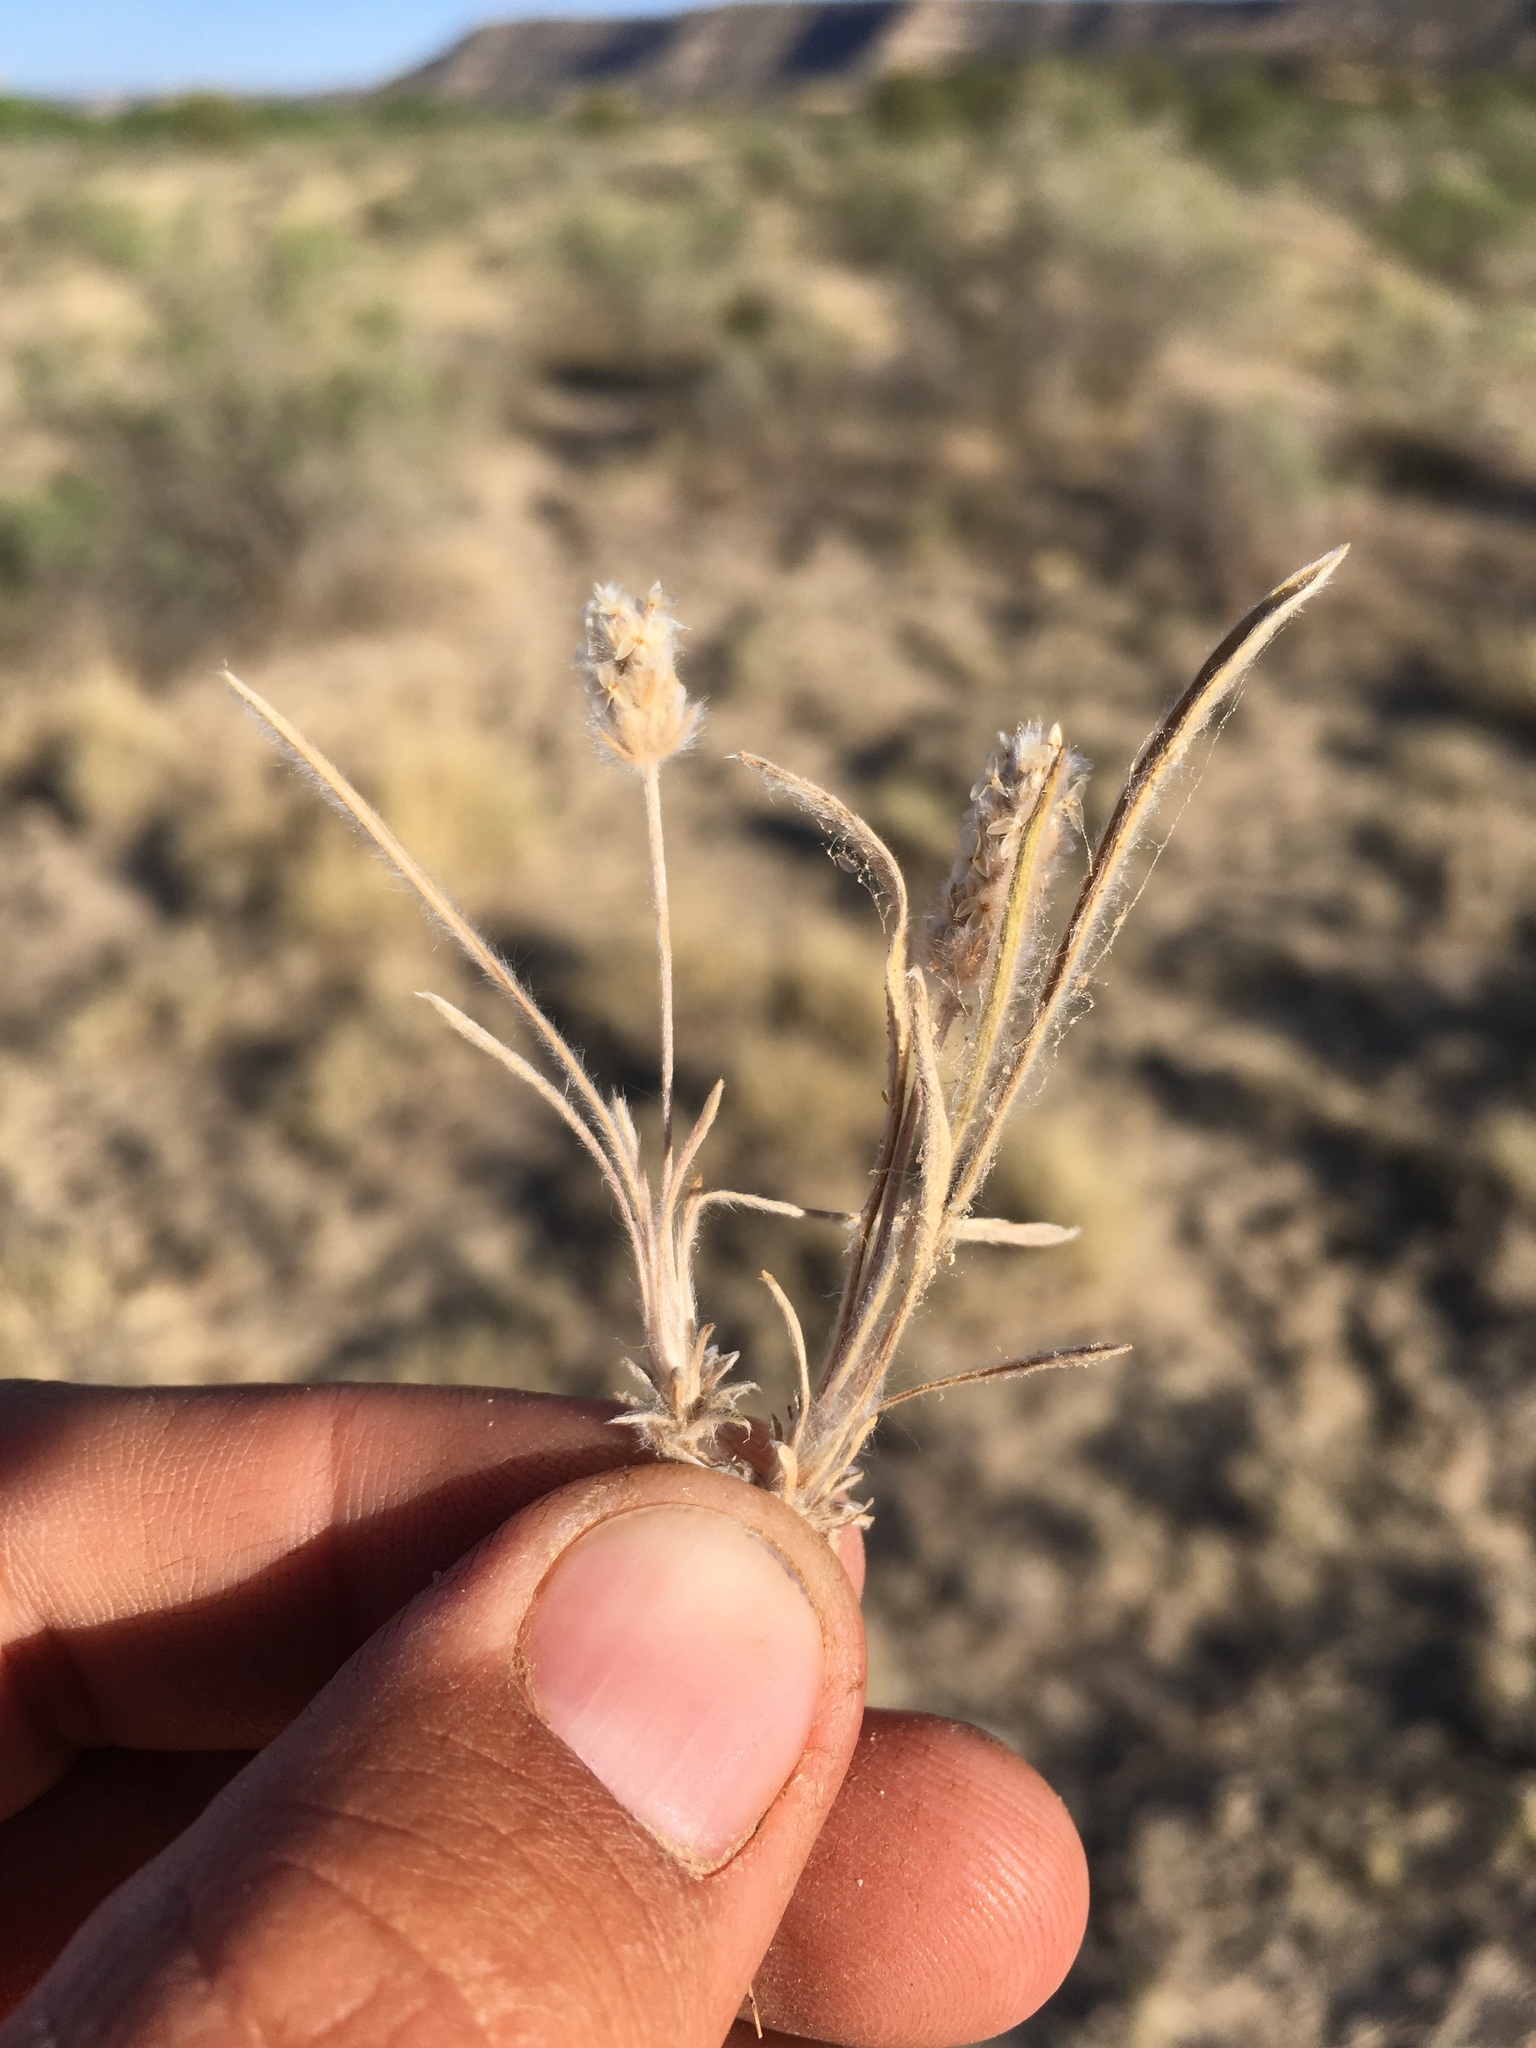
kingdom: Plantae
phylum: Tracheophyta
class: Magnoliopsida
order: Lamiales
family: Plantaginaceae
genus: Plantago
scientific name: Plantago patagonica
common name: Patagonia indian-wheat
